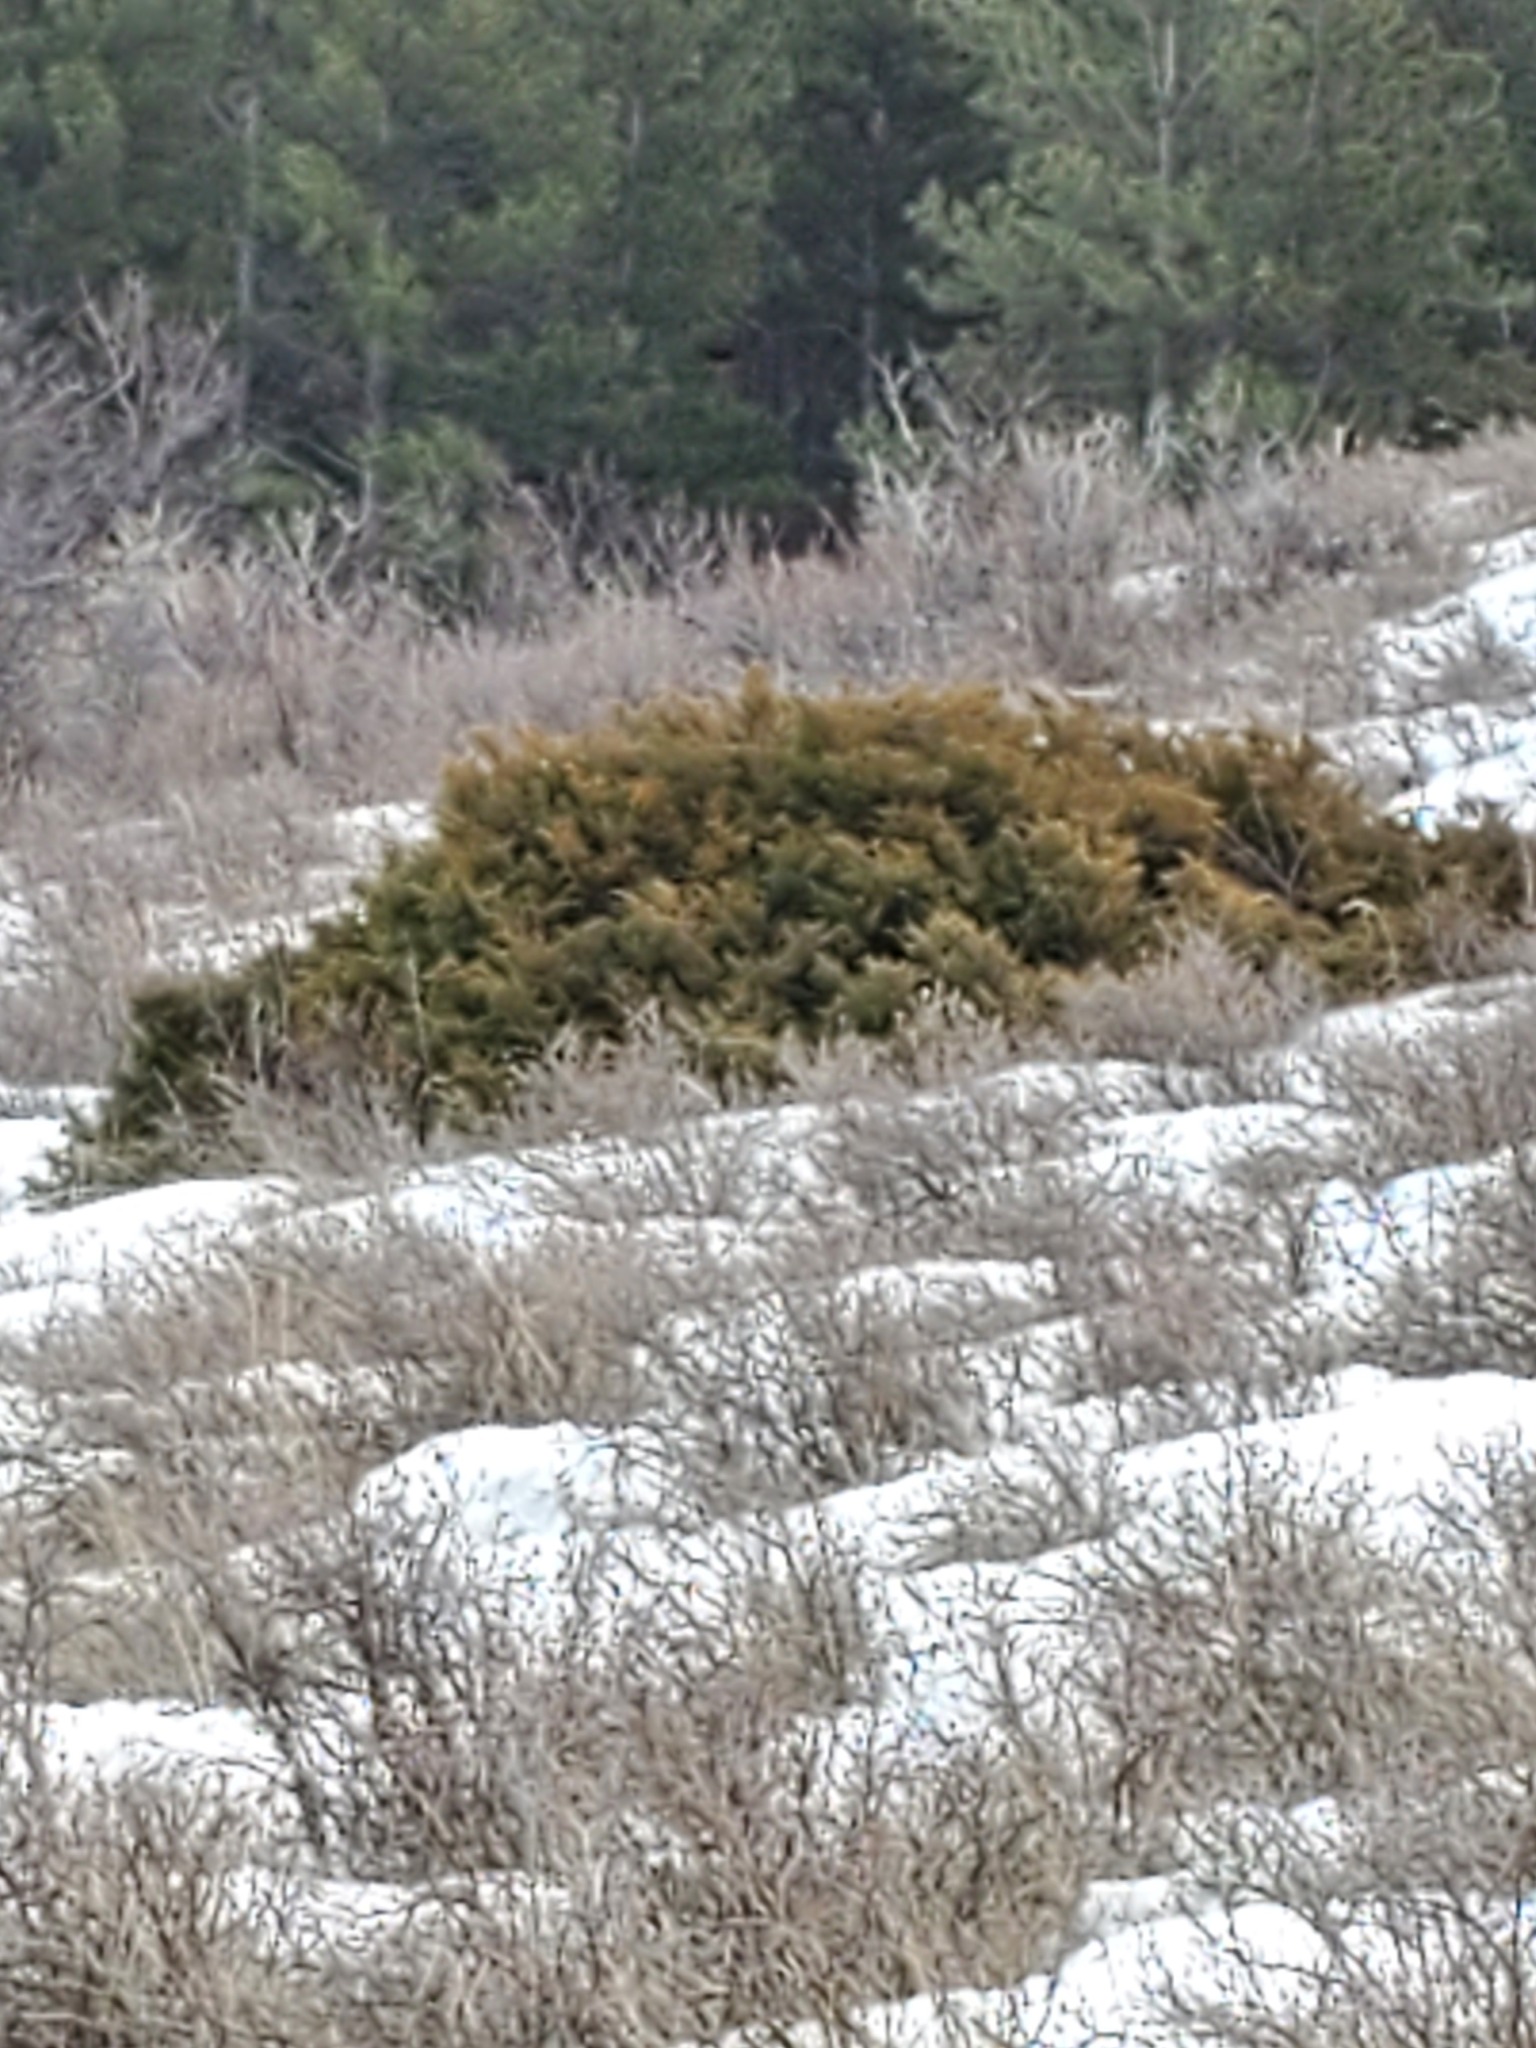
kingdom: Plantae
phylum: Tracheophyta
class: Pinopsida
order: Pinales
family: Cupressaceae
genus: Juniperus
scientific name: Juniperus communis
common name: Common juniper
